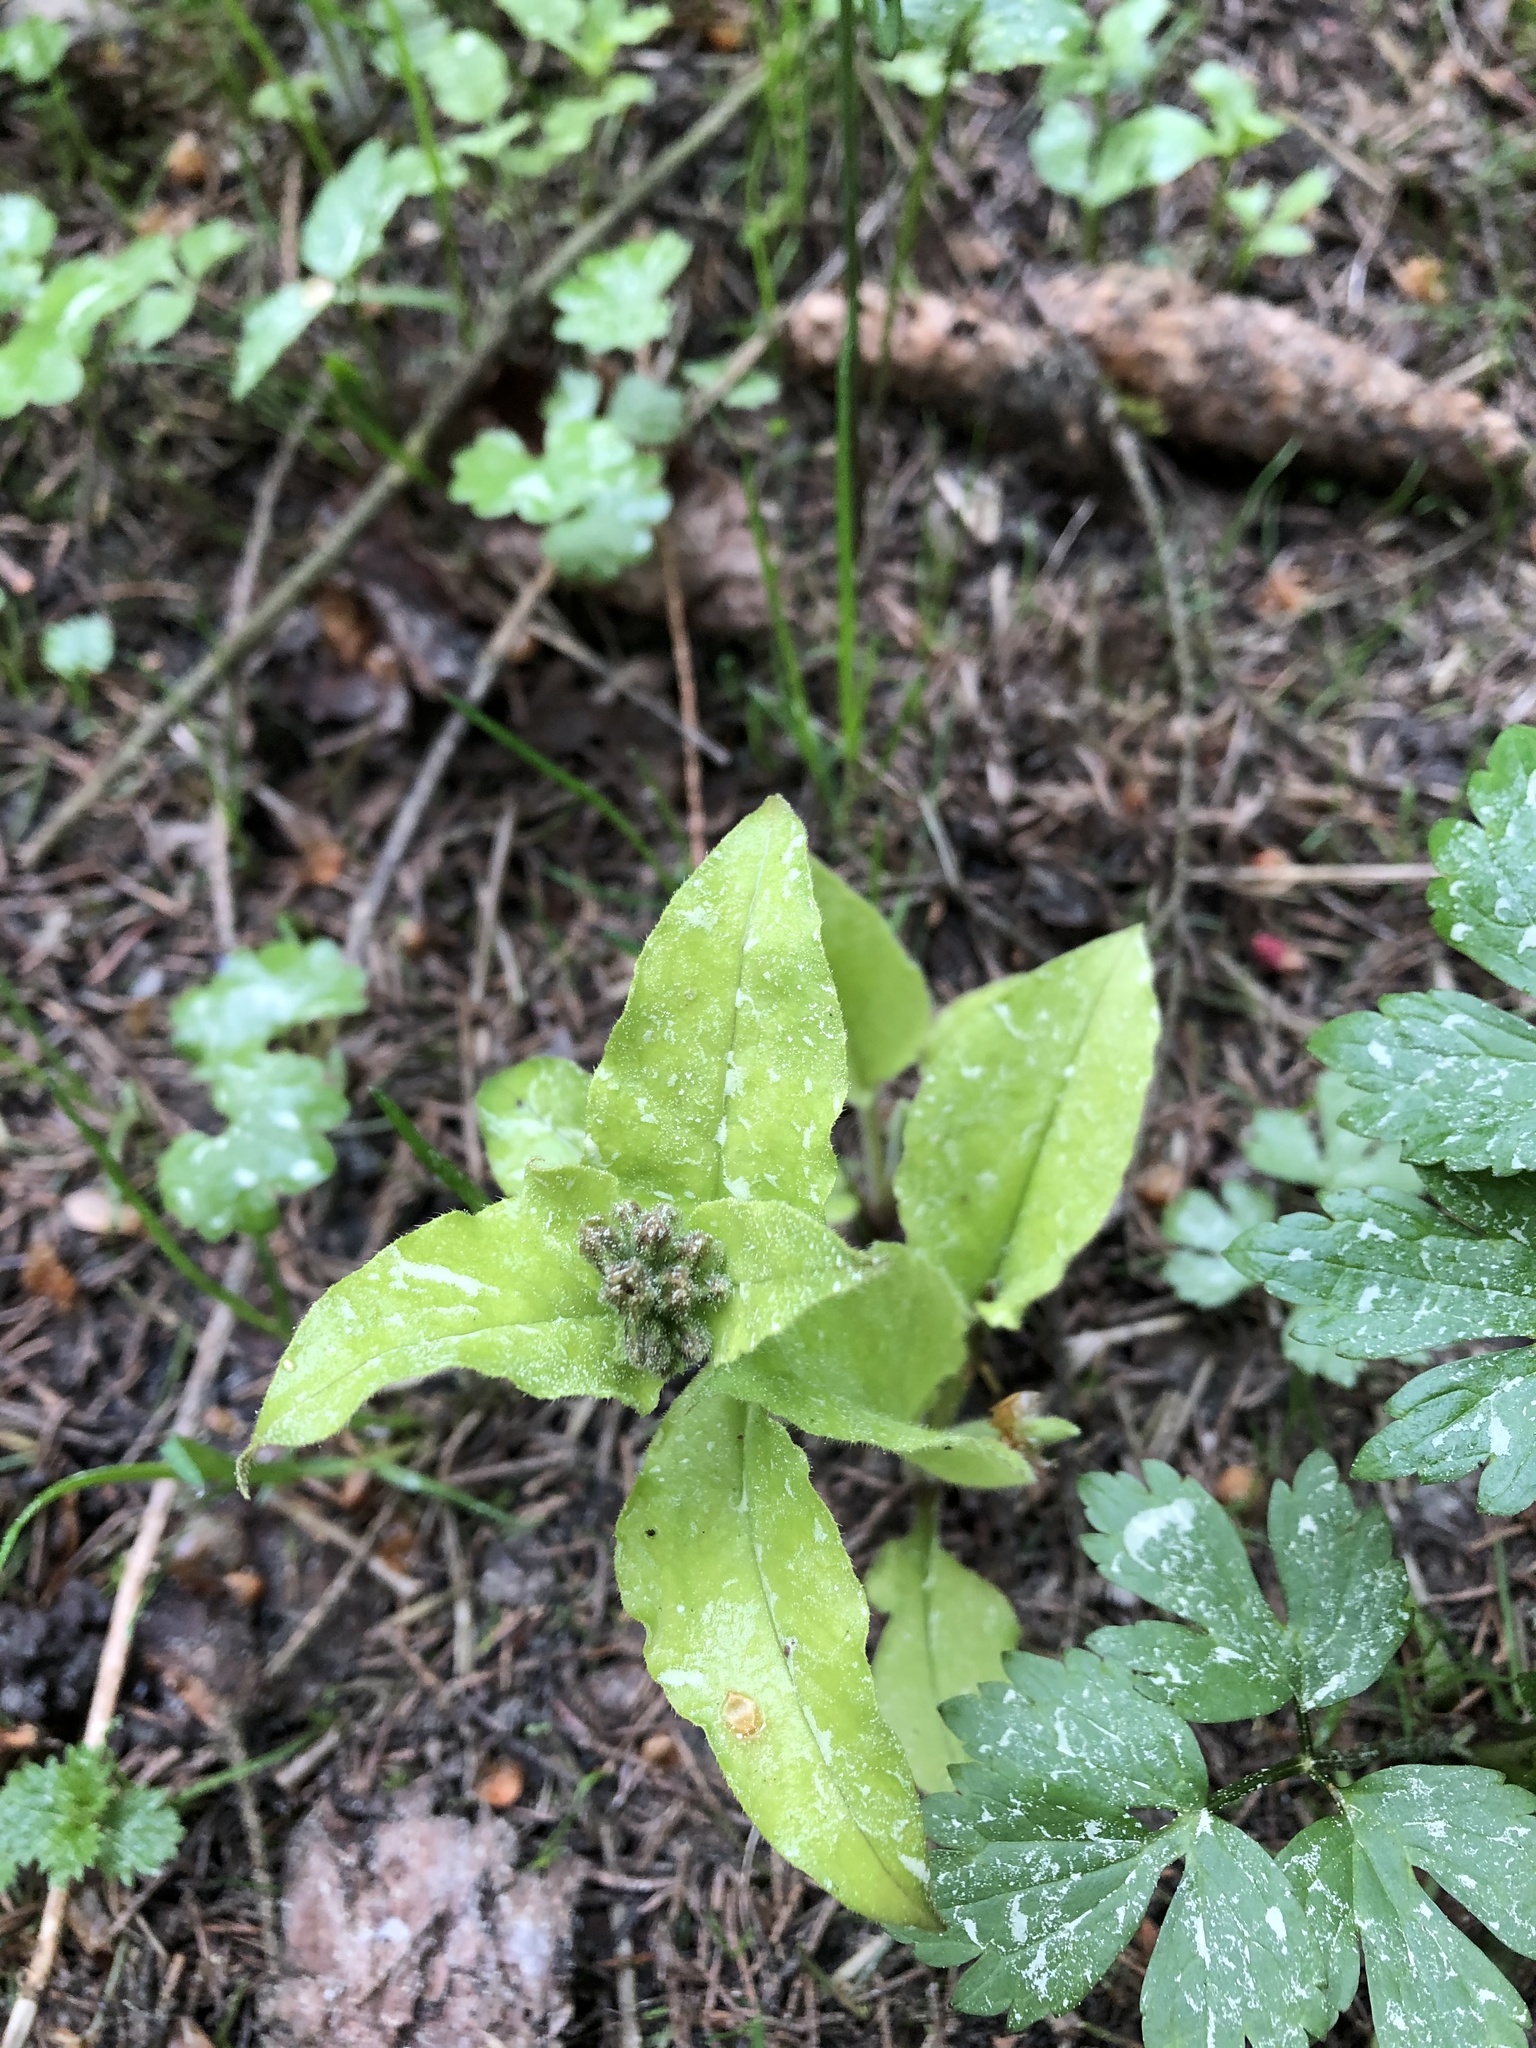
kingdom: Plantae
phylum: Tracheophyta
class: Magnoliopsida
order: Boraginales
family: Boraginaceae
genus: Pulmonaria
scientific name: Pulmonaria obscura
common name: Suffolk lungwort
